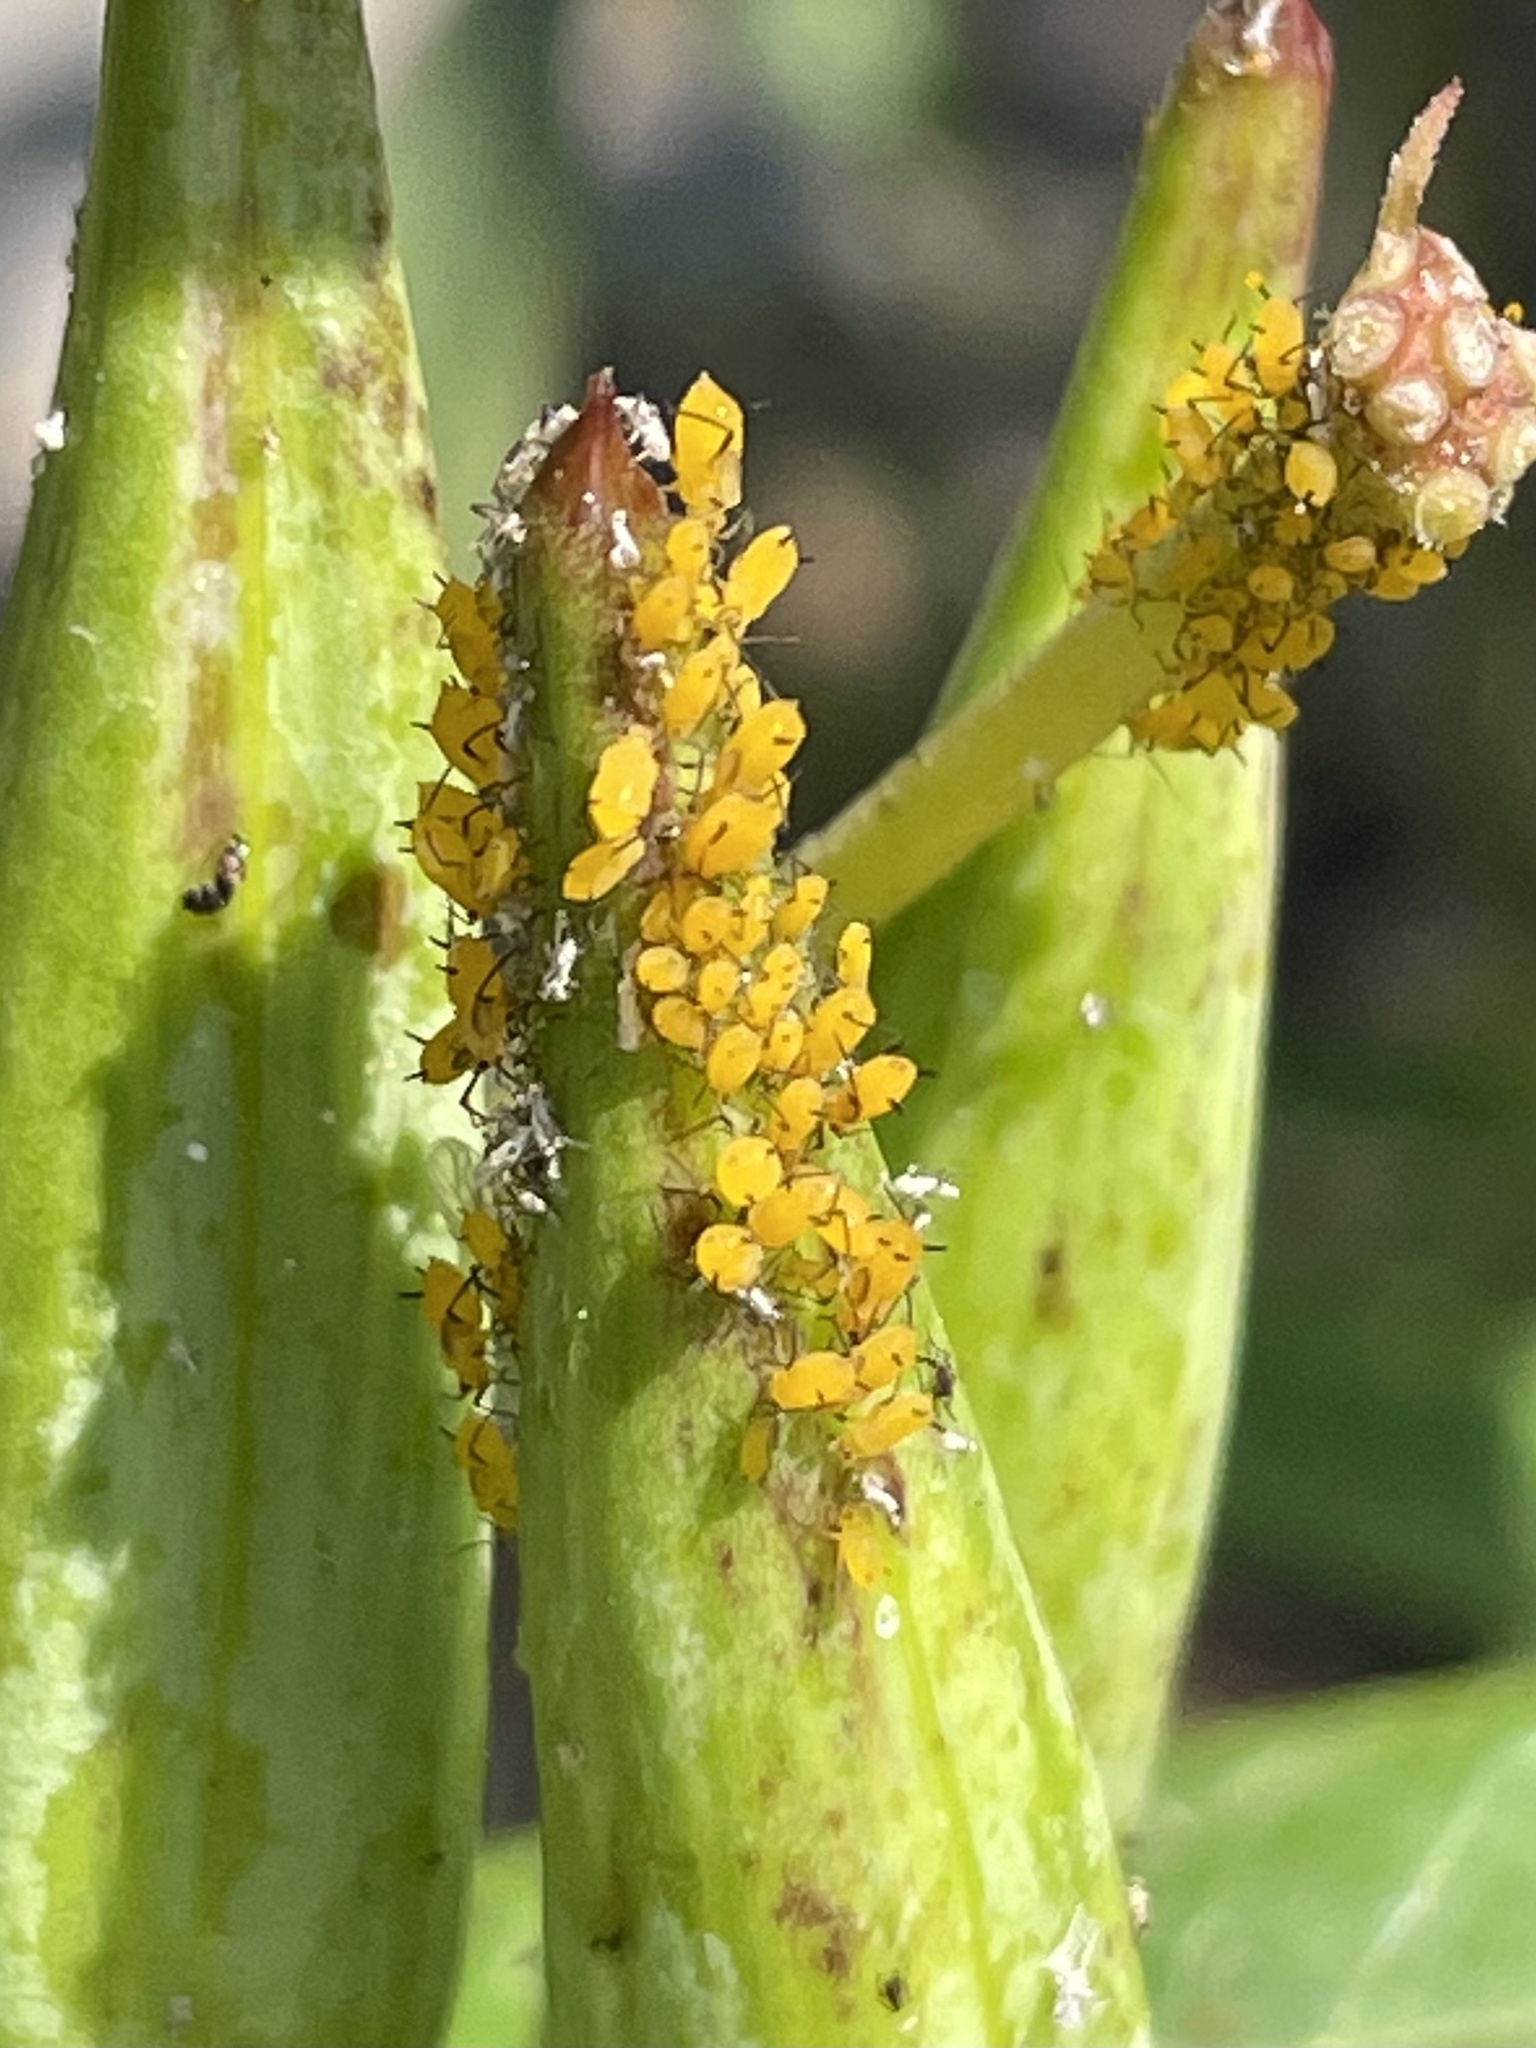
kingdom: Animalia
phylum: Arthropoda
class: Insecta
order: Hemiptera
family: Aphididae
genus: Aphis
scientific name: Aphis nerii
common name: Oleander aphid
